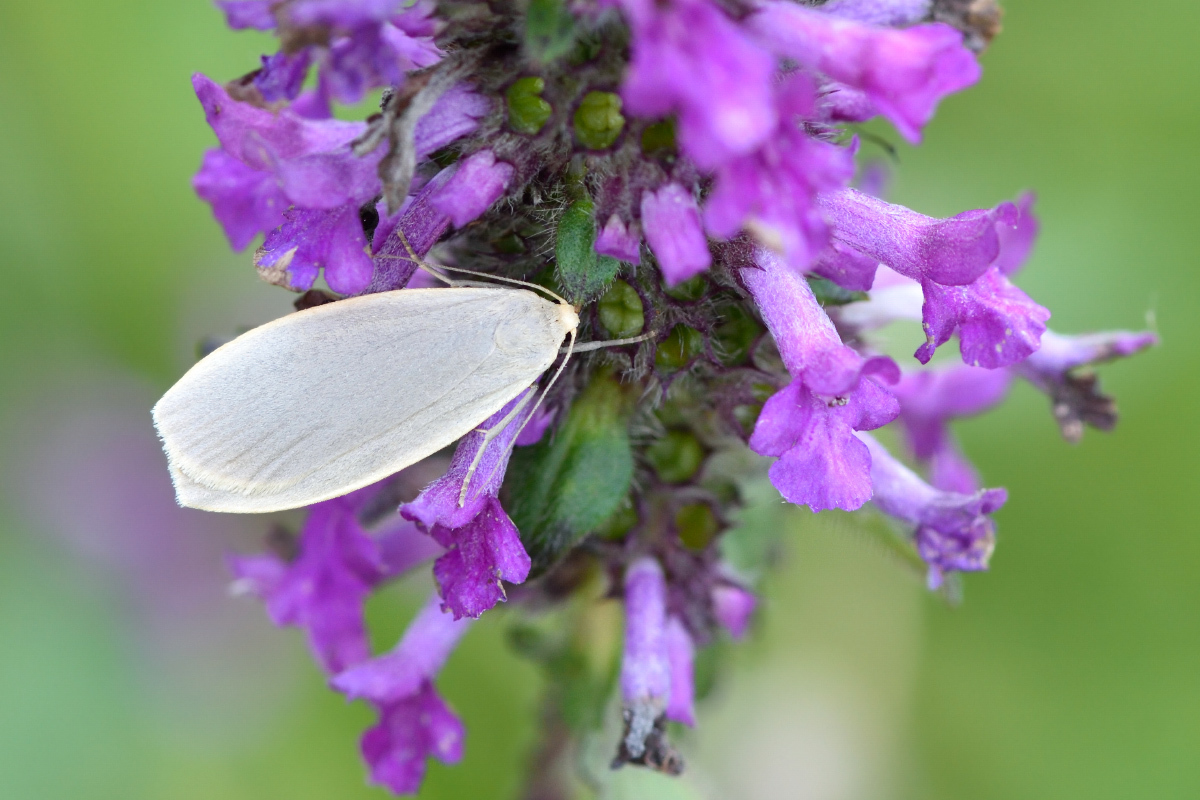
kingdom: Animalia
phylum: Arthropoda
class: Insecta
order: Lepidoptera
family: Erebidae
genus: Collita
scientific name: Collita griseola
